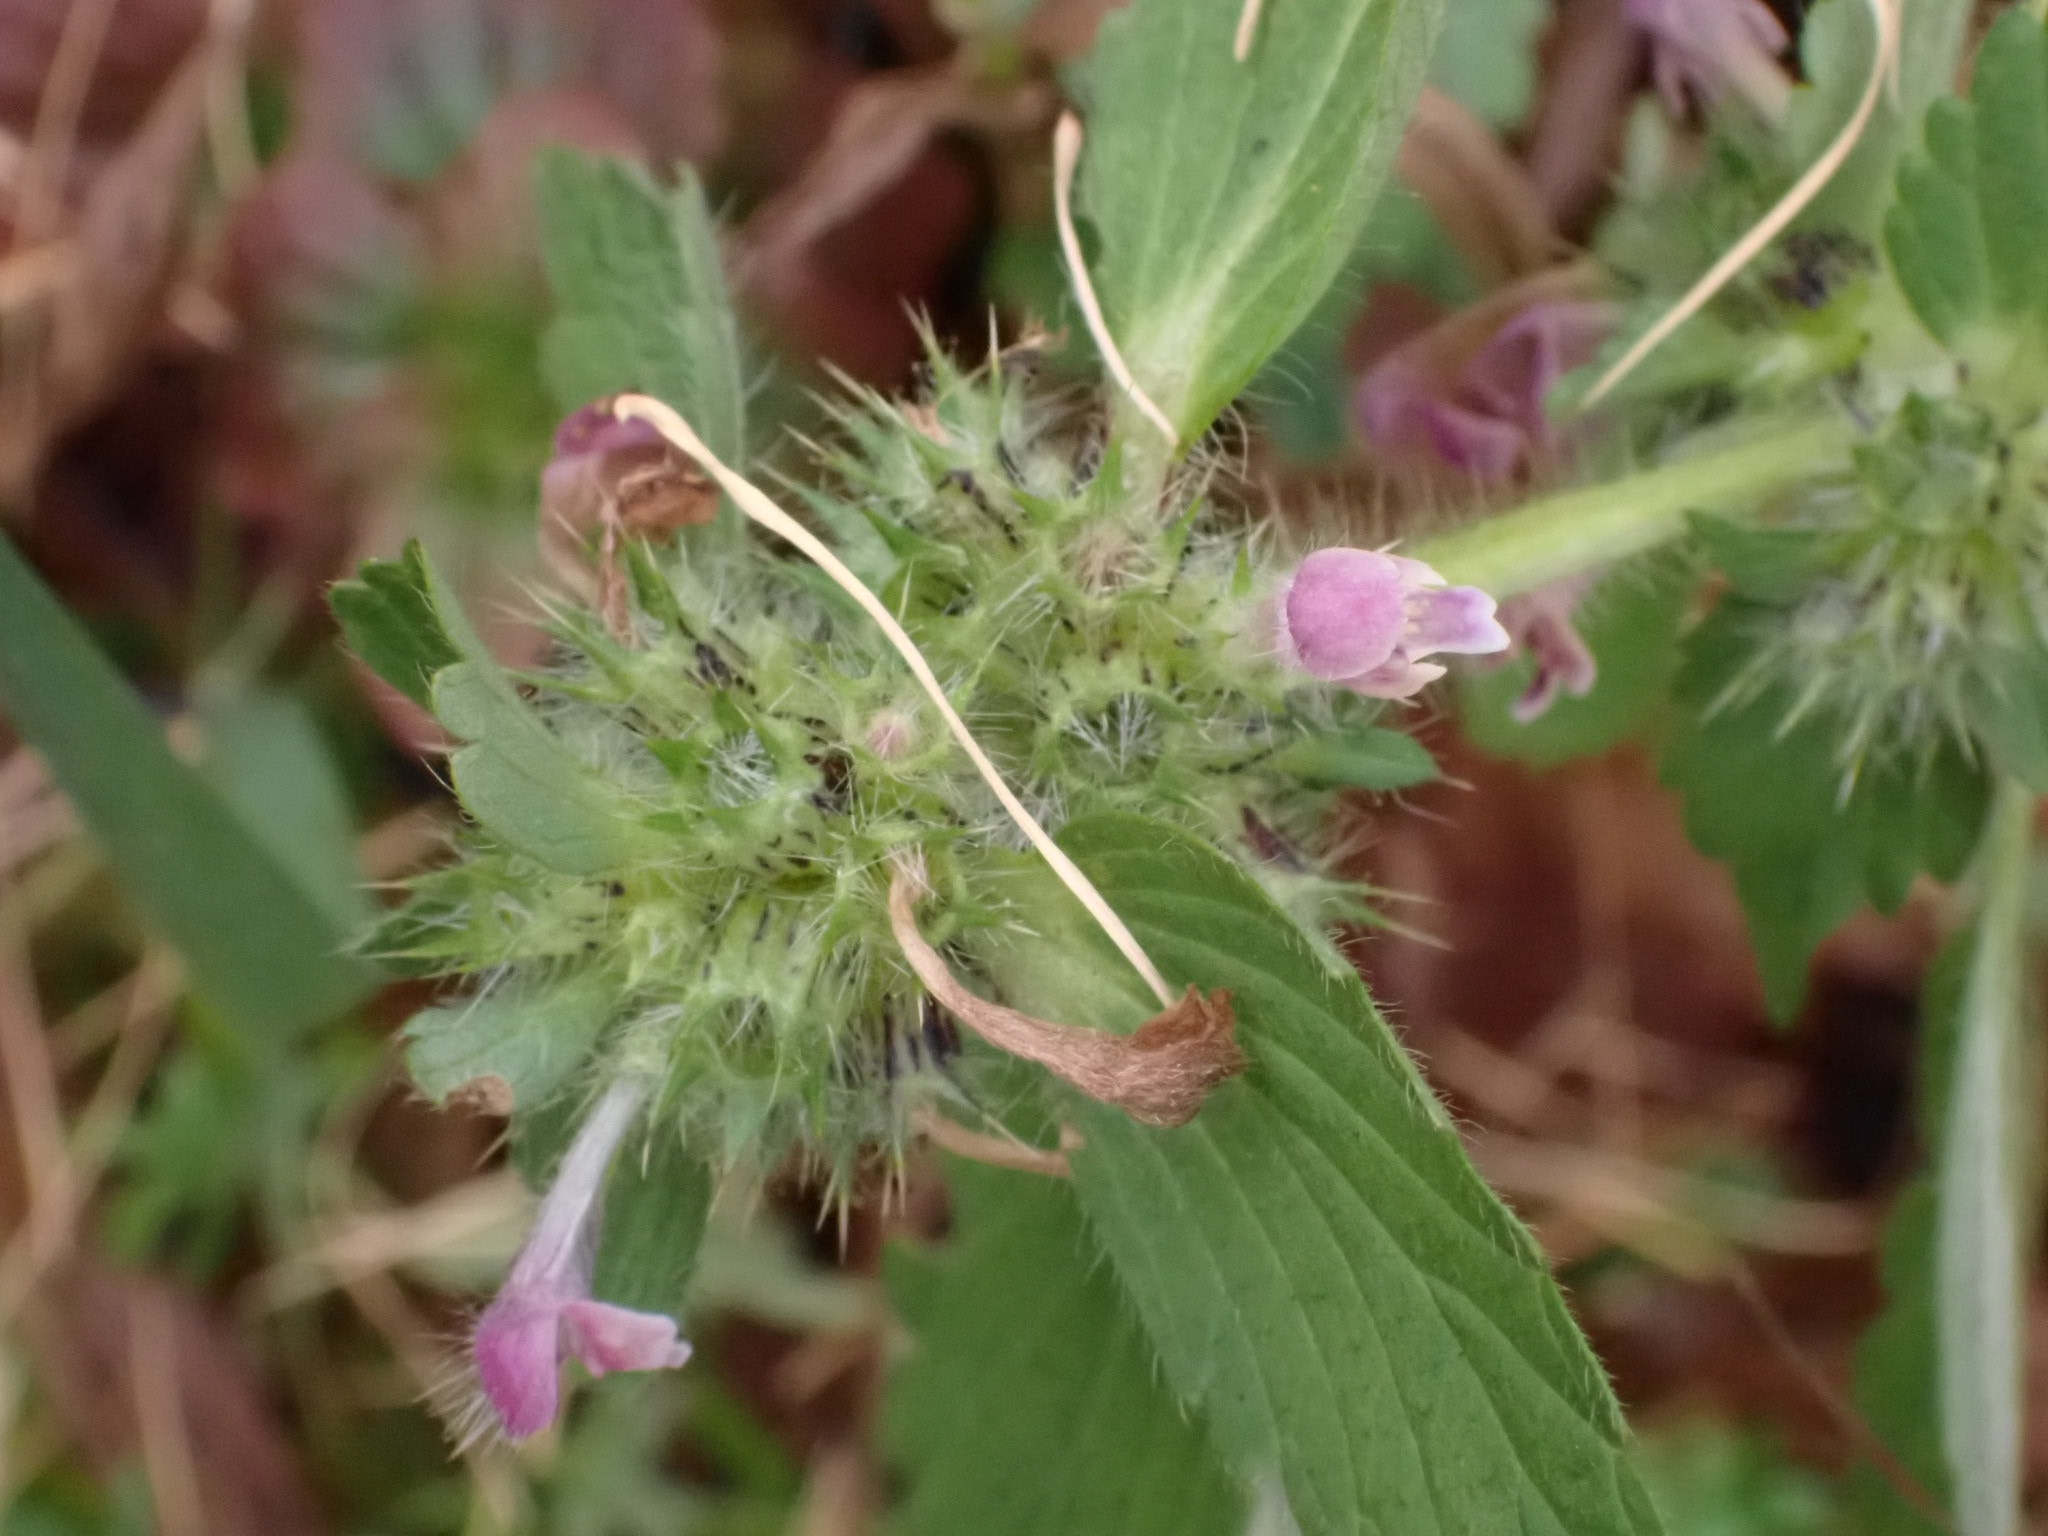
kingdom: Plantae
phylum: Tracheophyta
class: Magnoliopsida
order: Lamiales
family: Lamiaceae
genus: Galeopsis
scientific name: Galeopsis bifida
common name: Bifid hemp-nettle
